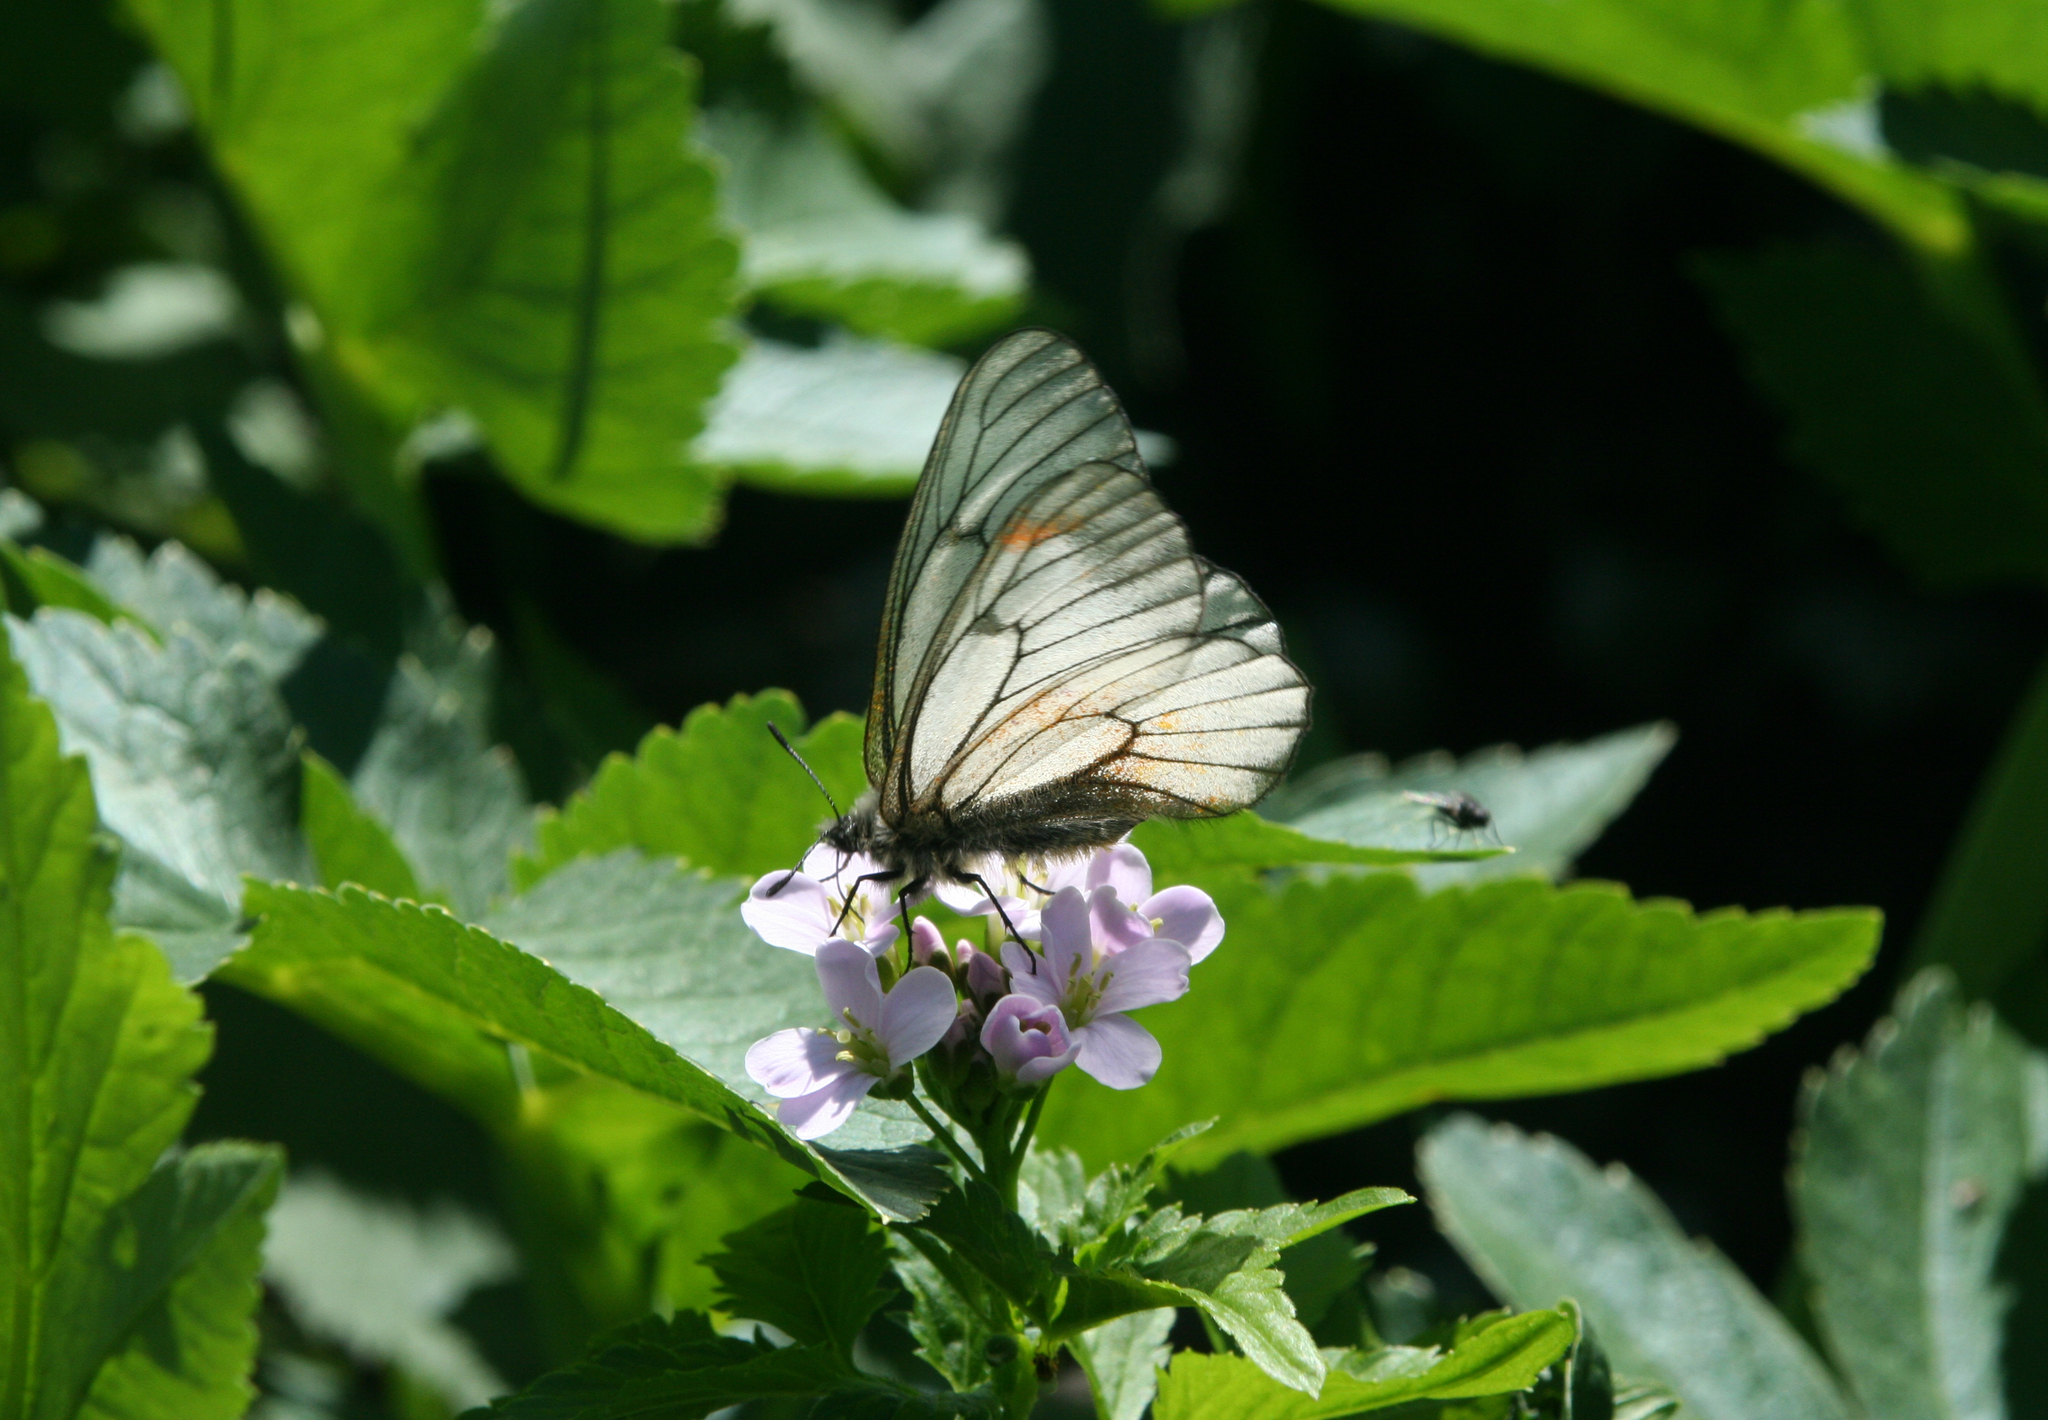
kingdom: Animalia
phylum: Arthropoda
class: Insecta
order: Lepidoptera
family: Papilionidae
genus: Parnassius
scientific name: Parnassius stubbendorfii
